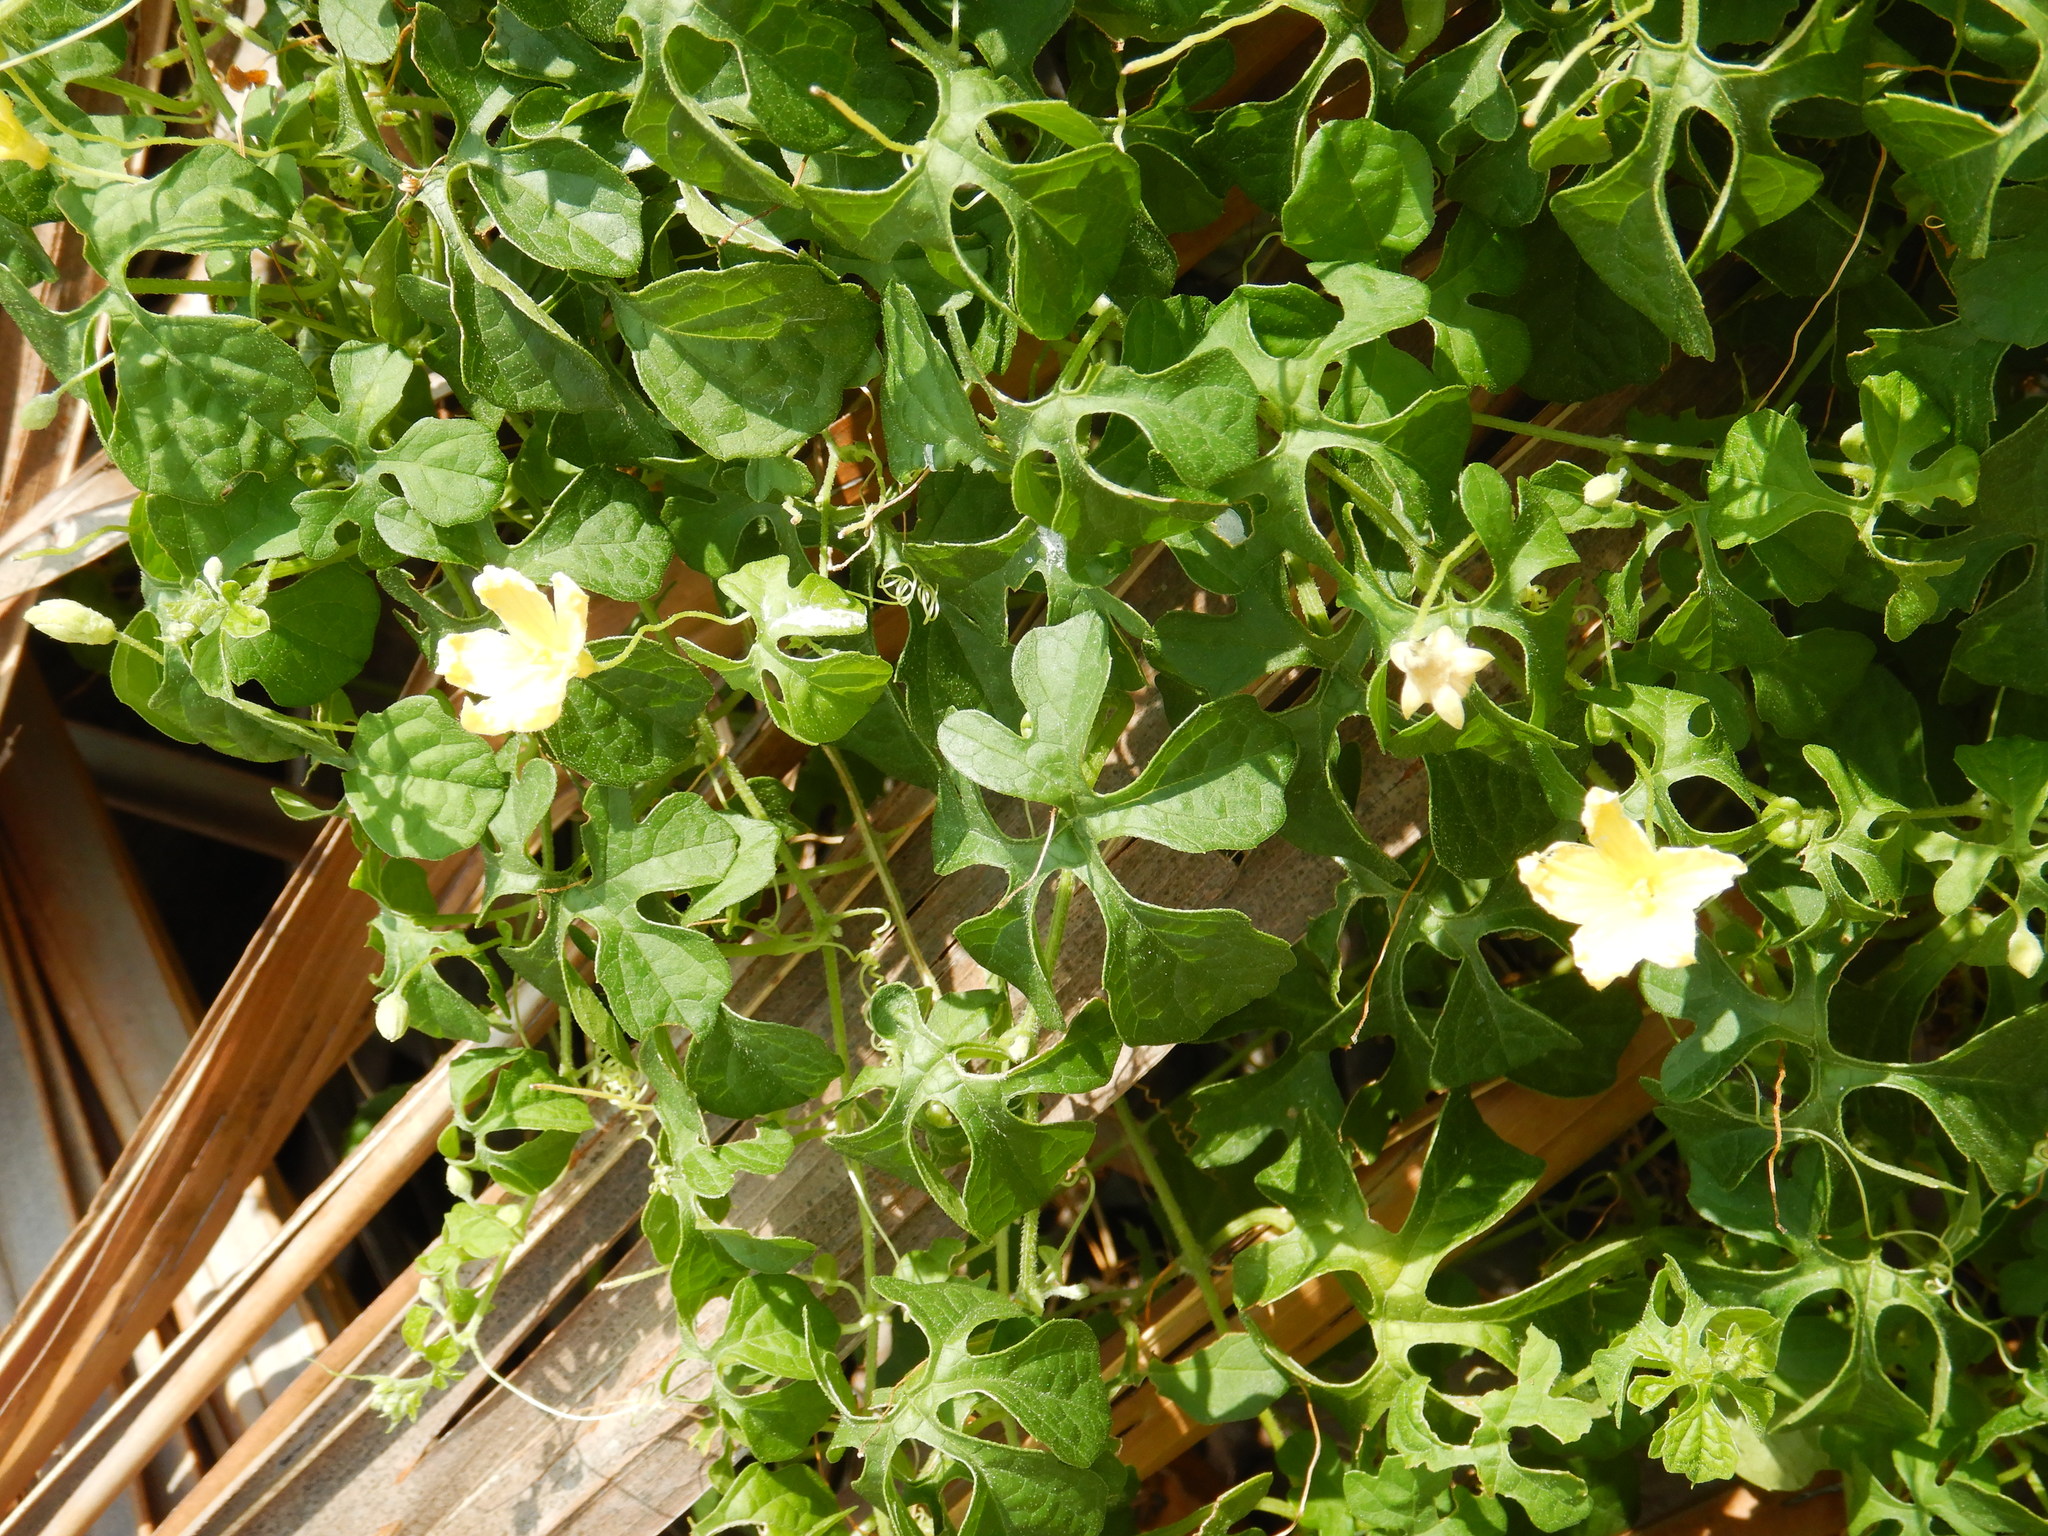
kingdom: Plantae
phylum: Tracheophyta
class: Magnoliopsida
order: Cucurbitales
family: Cucurbitaceae
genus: Momordica
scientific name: Momordica charantia
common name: Balsampear
